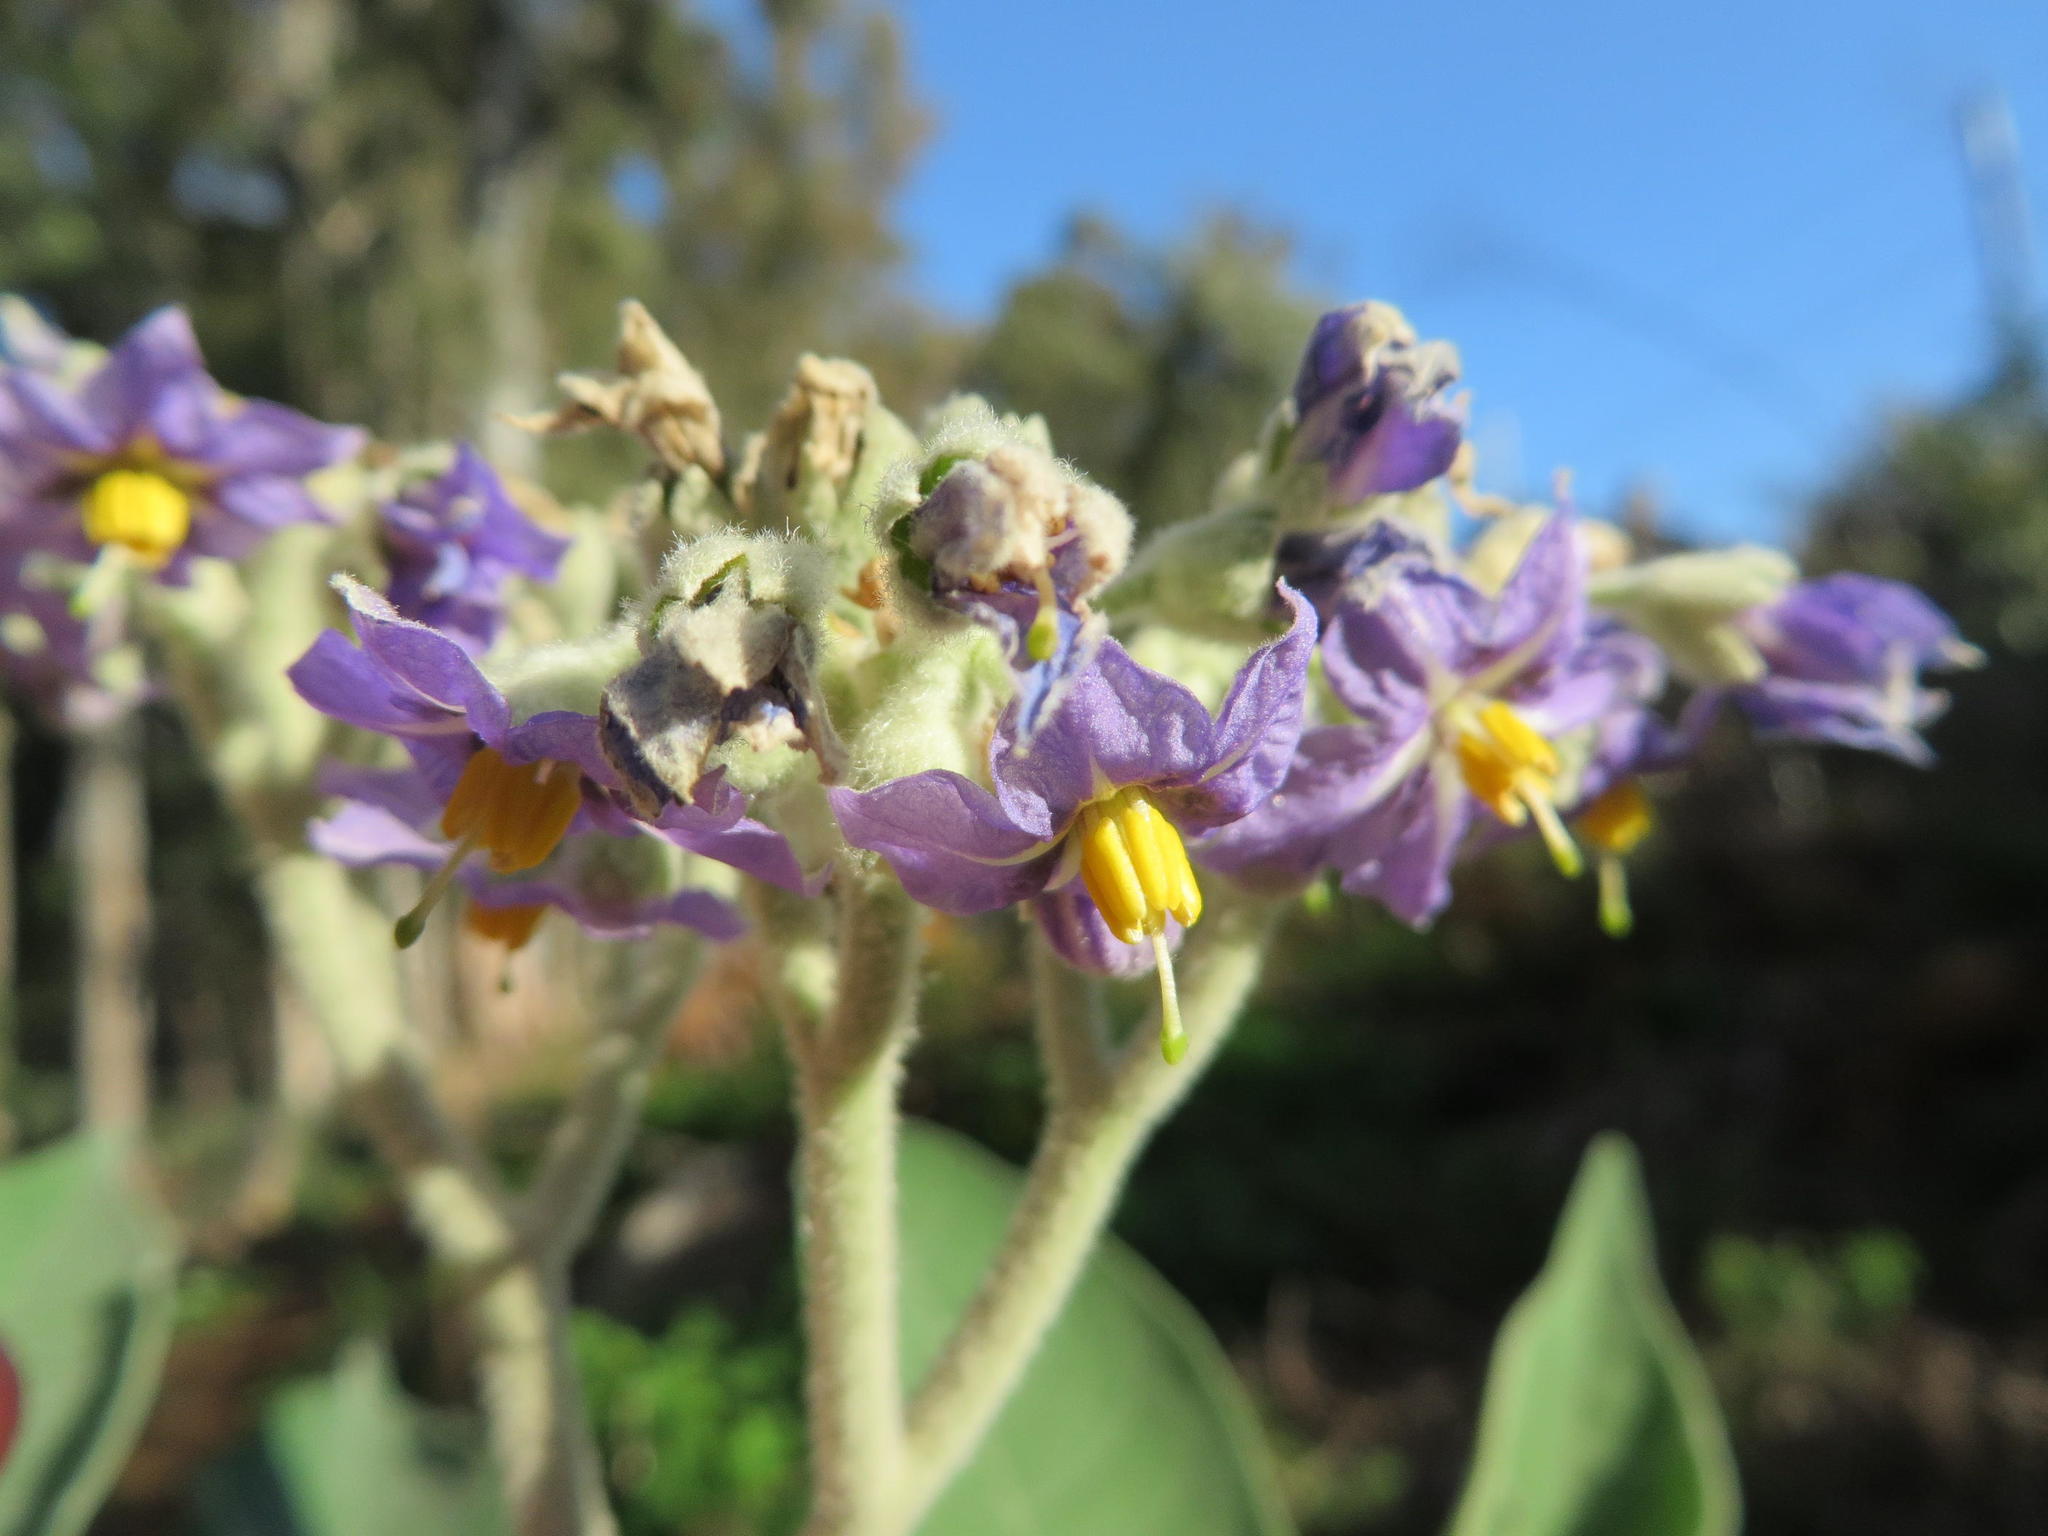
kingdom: Plantae
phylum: Tracheophyta
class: Magnoliopsida
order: Solanales
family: Solanaceae
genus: Solanum
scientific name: Solanum mauritianum
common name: Earleaf nightshade
